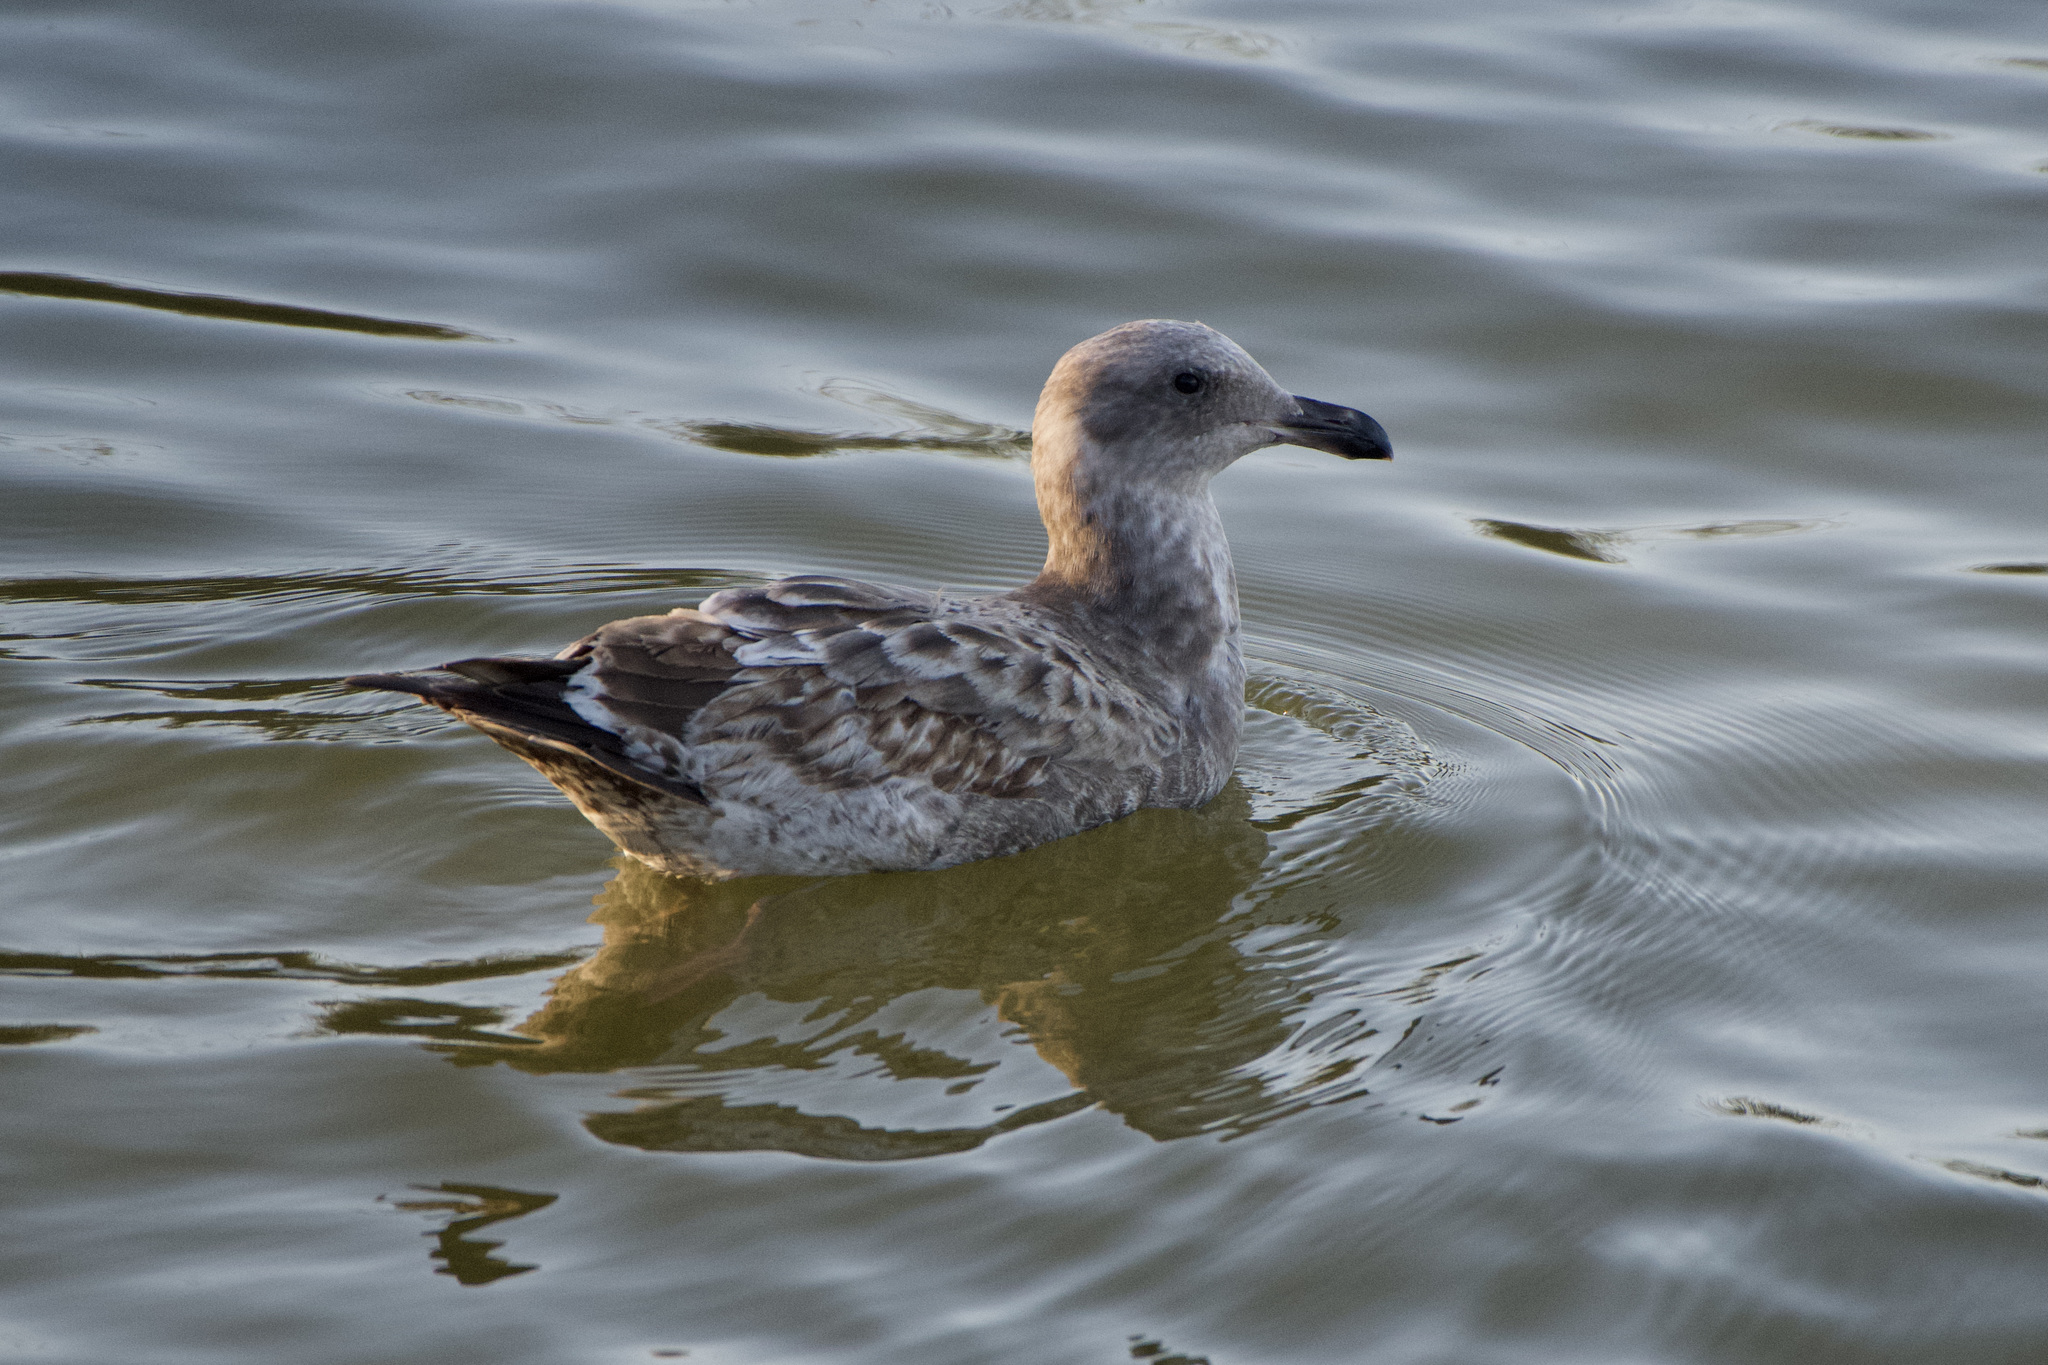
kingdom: Animalia
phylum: Chordata
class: Aves
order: Charadriiformes
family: Laridae
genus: Larus
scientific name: Larus occidentalis
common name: Western gull
